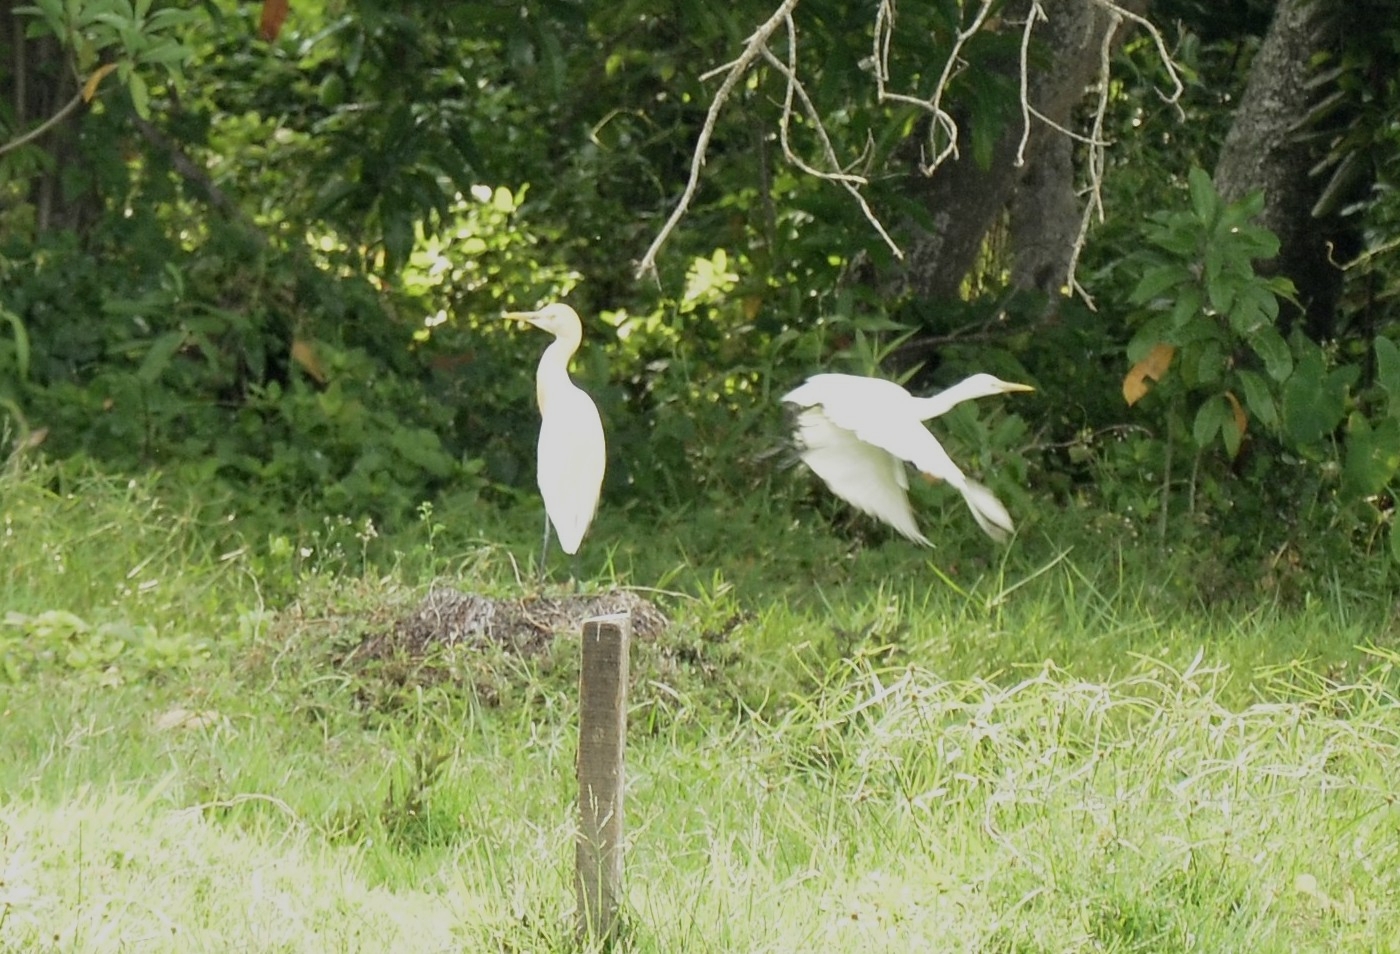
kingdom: Animalia
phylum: Chordata
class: Aves
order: Pelecaniformes
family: Ardeidae
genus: Bubulcus
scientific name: Bubulcus coromandus
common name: Eastern cattle egret
